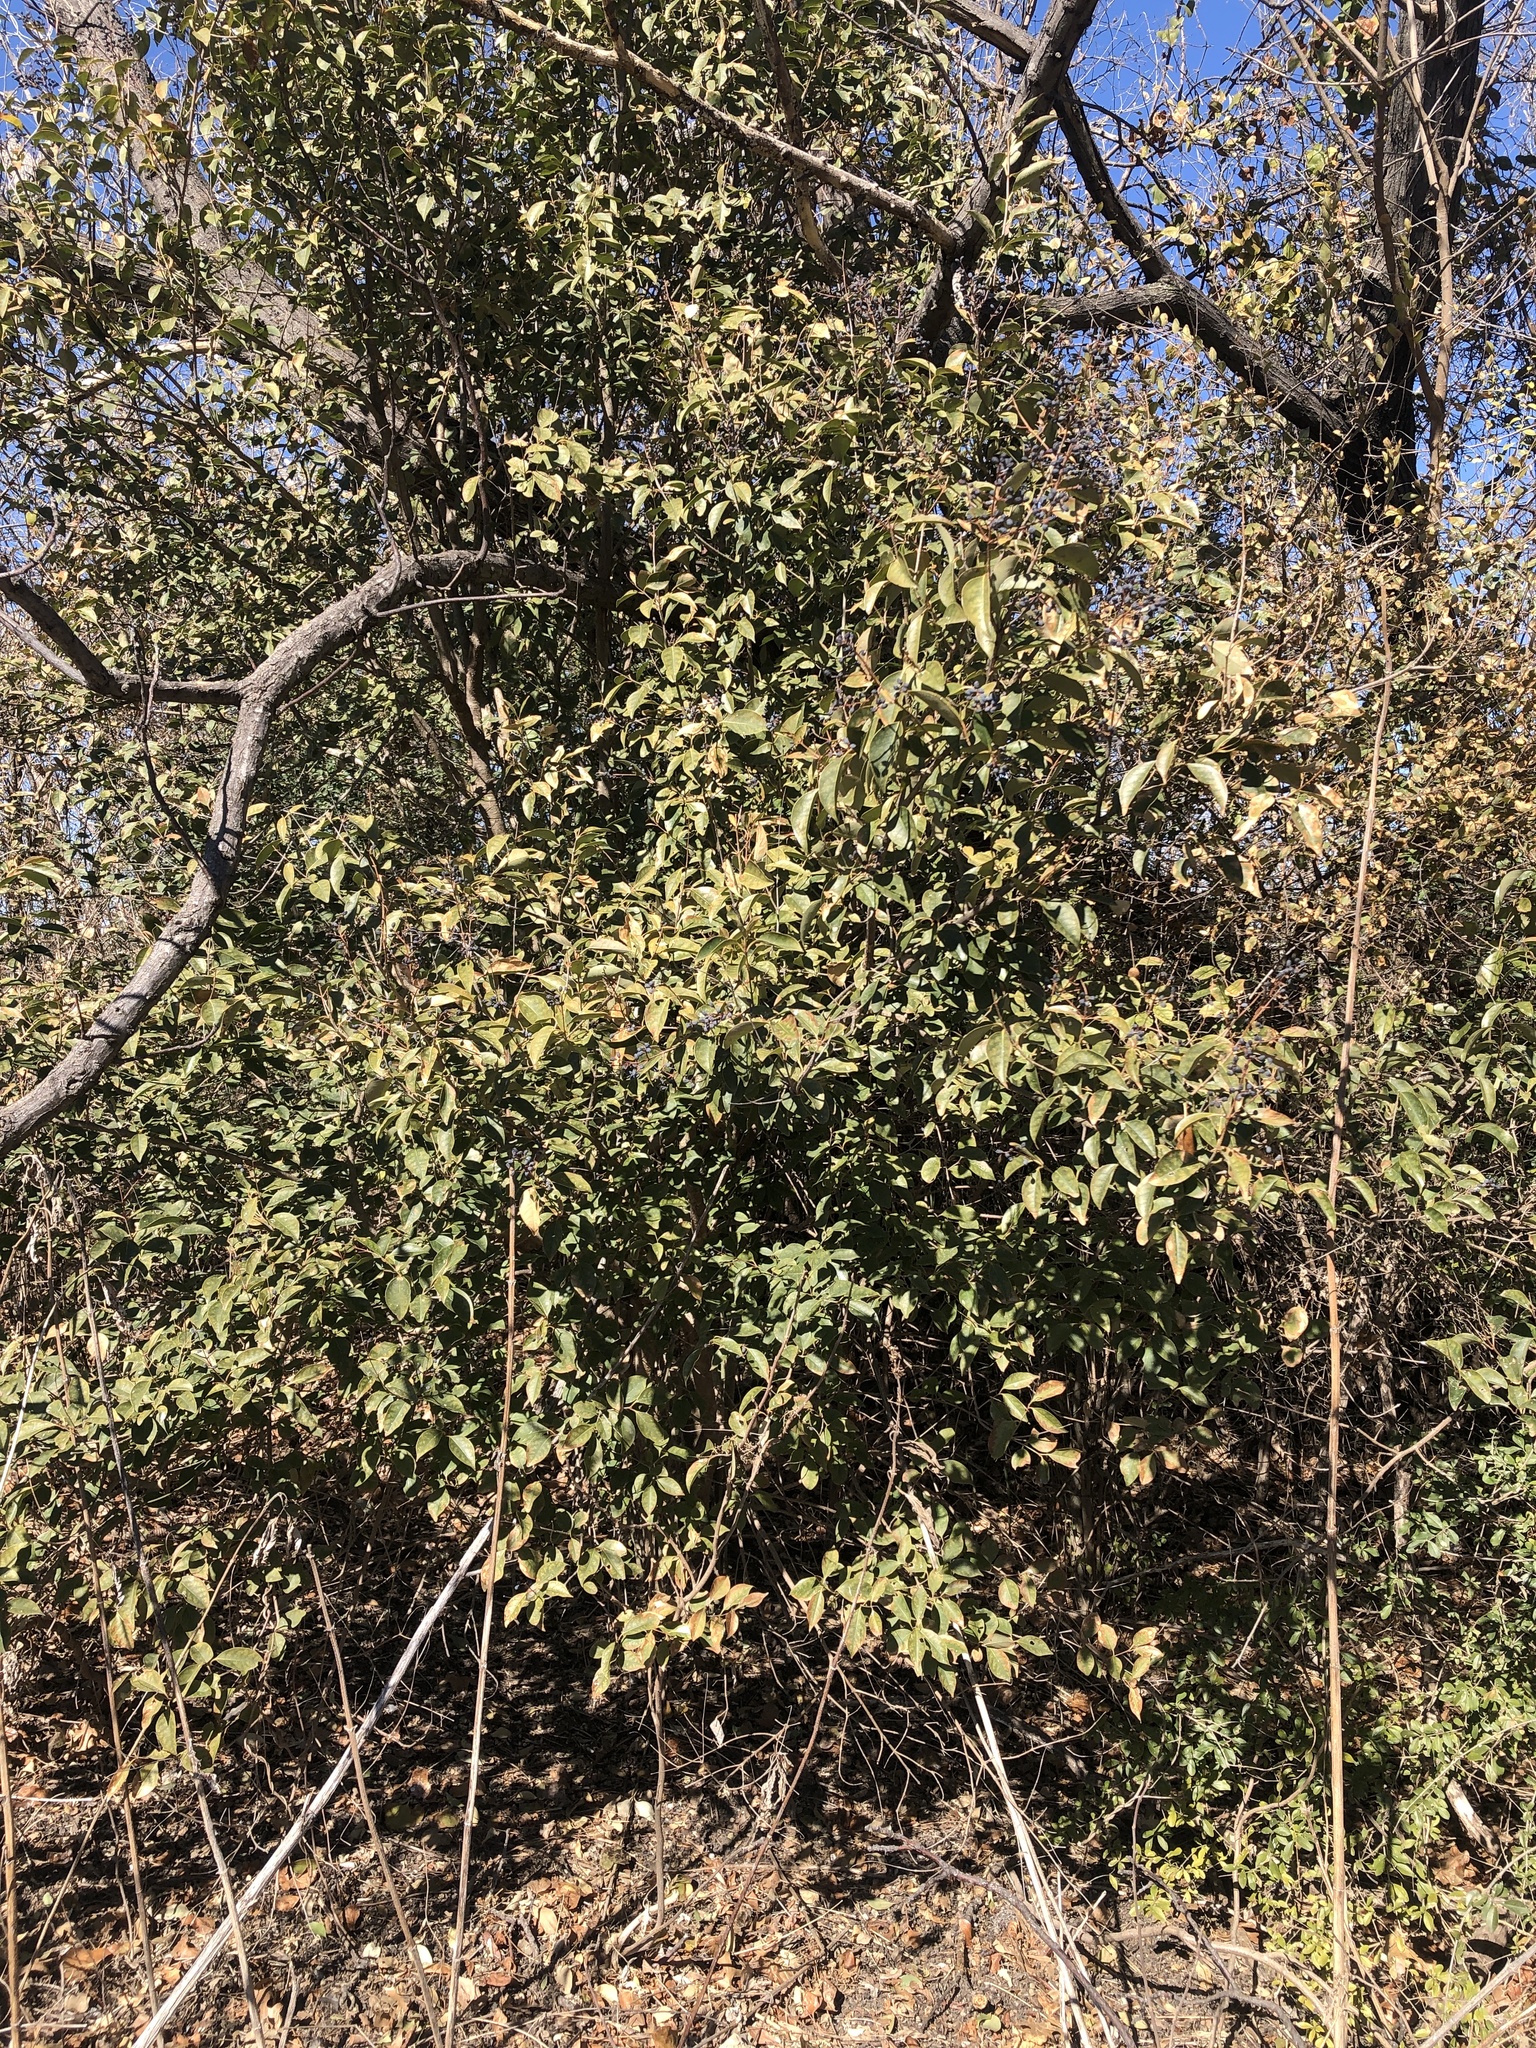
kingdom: Plantae
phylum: Tracheophyta
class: Magnoliopsida
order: Lamiales
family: Oleaceae
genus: Ligustrum
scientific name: Ligustrum lucidum
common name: Glossy privet
